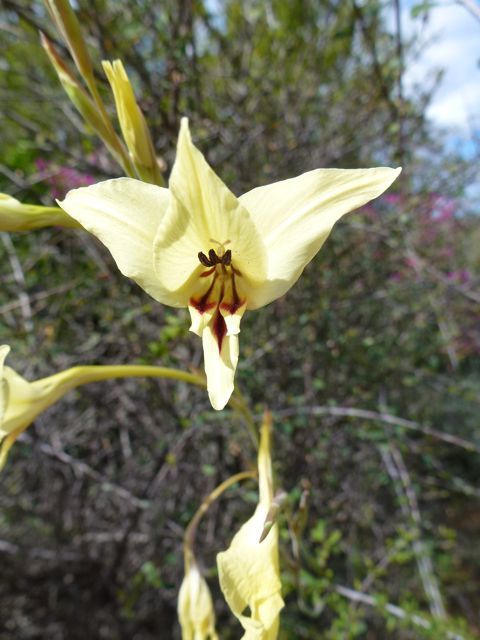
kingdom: Plantae
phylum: Tracheophyta
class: Liliopsida
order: Asparagales
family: Iridaceae
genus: Gladiolus
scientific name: Gladiolus leptosiphon
